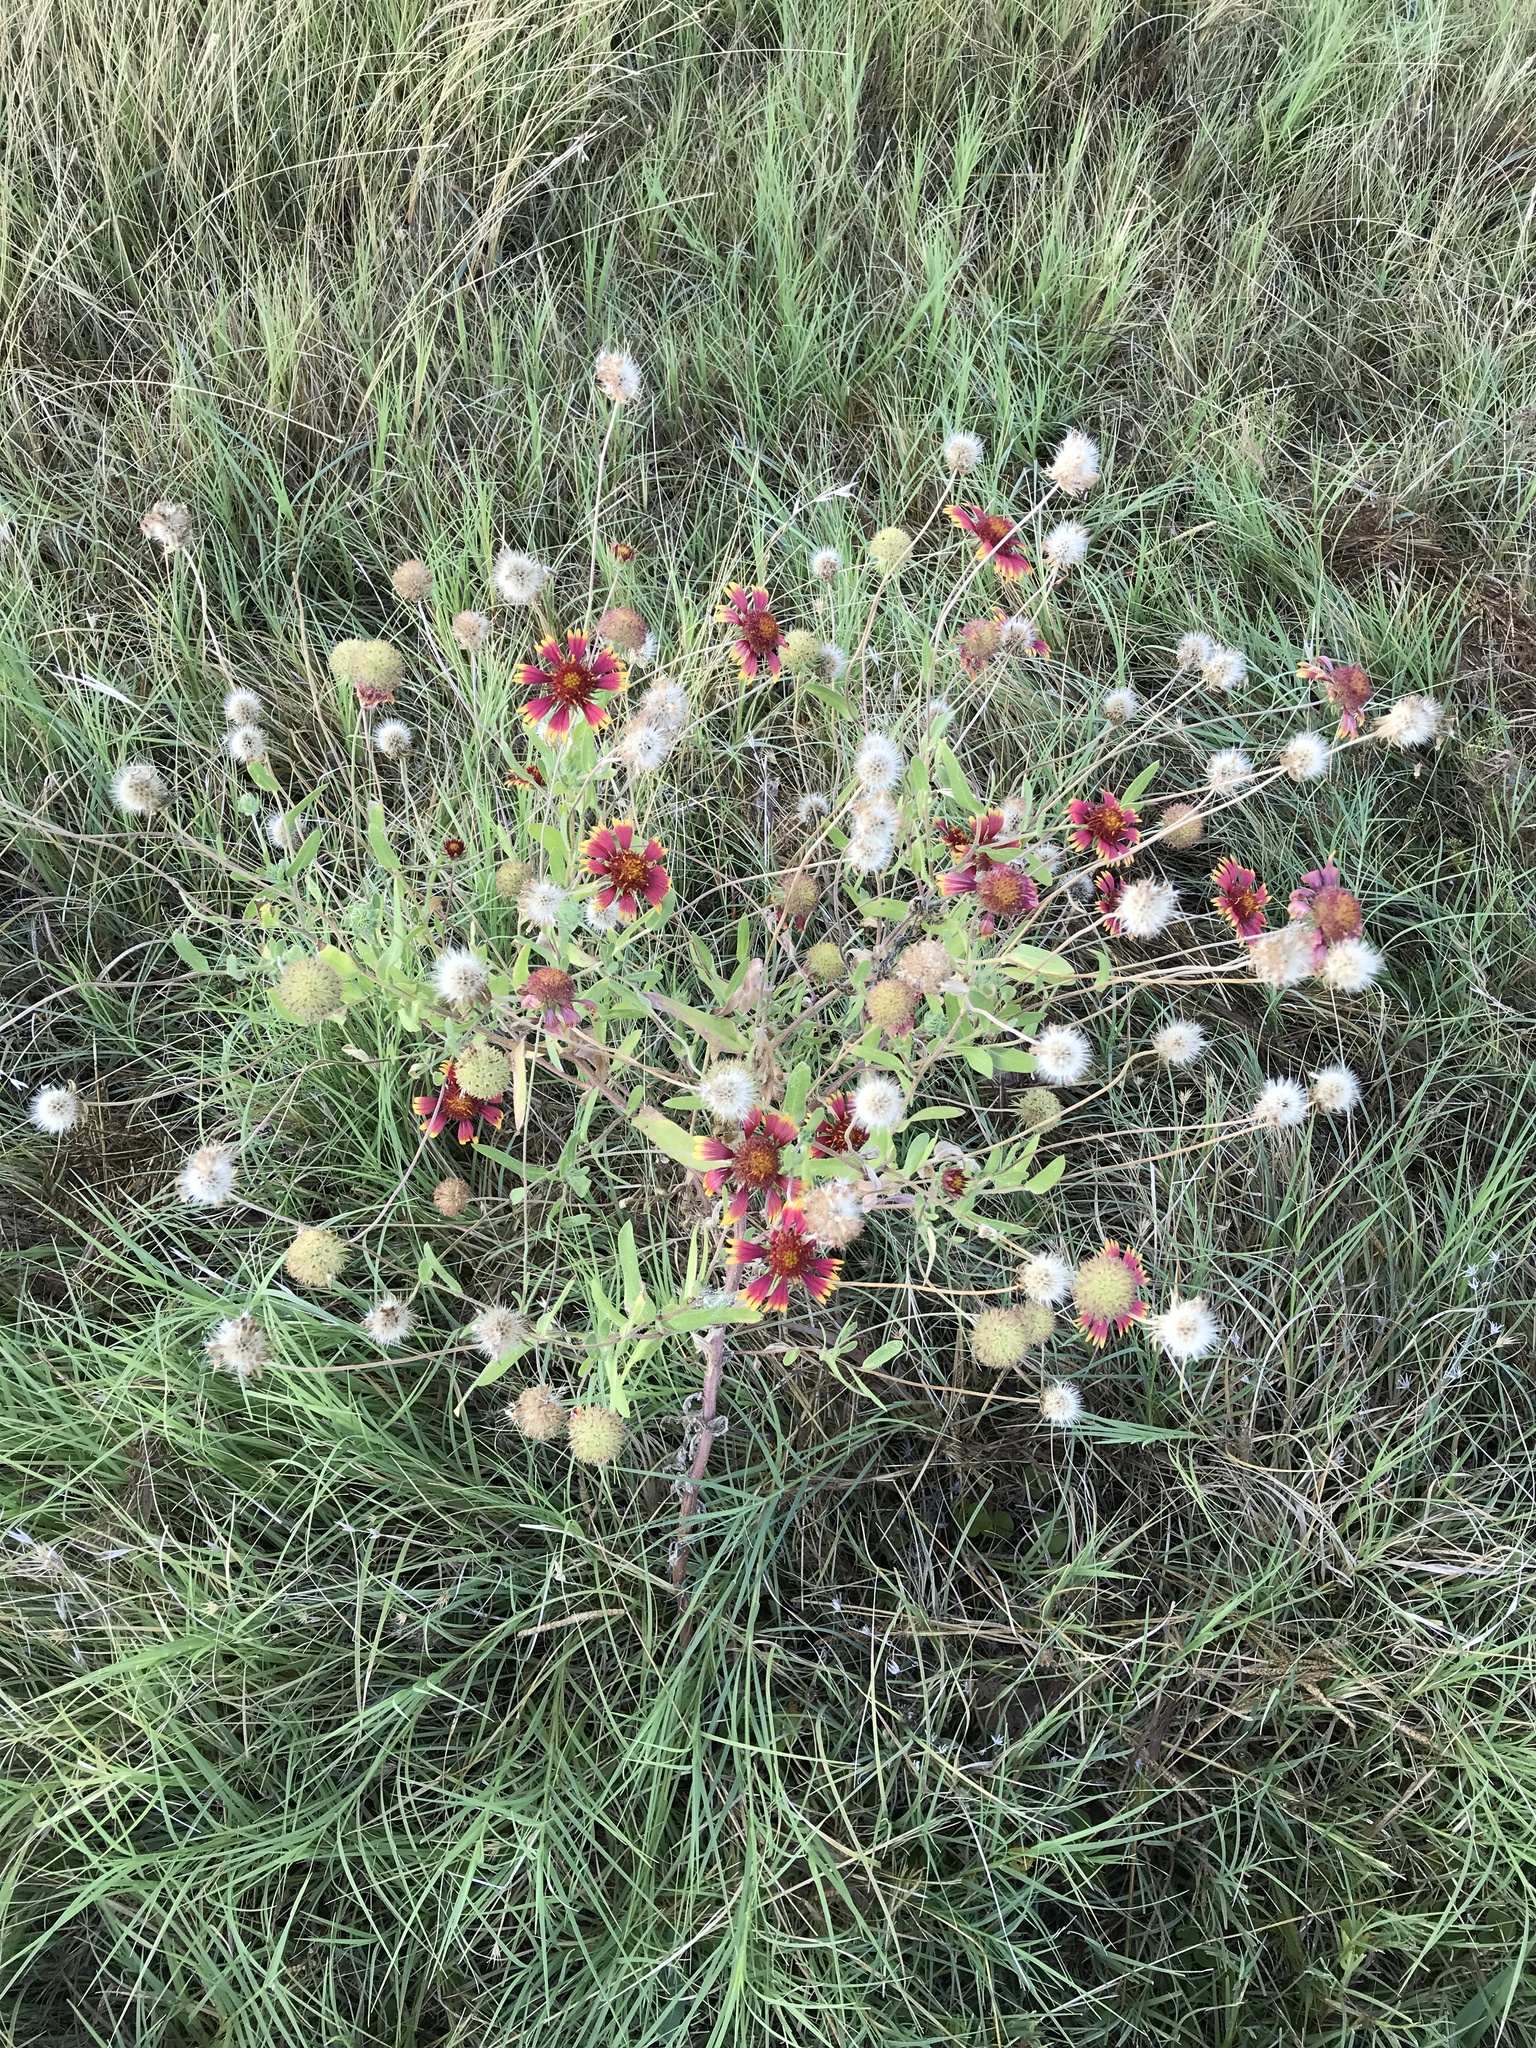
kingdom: Plantae
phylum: Tracheophyta
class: Magnoliopsida
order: Asterales
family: Asteraceae
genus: Gaillardia
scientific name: Gaillardia pulchella
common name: Firewheel
